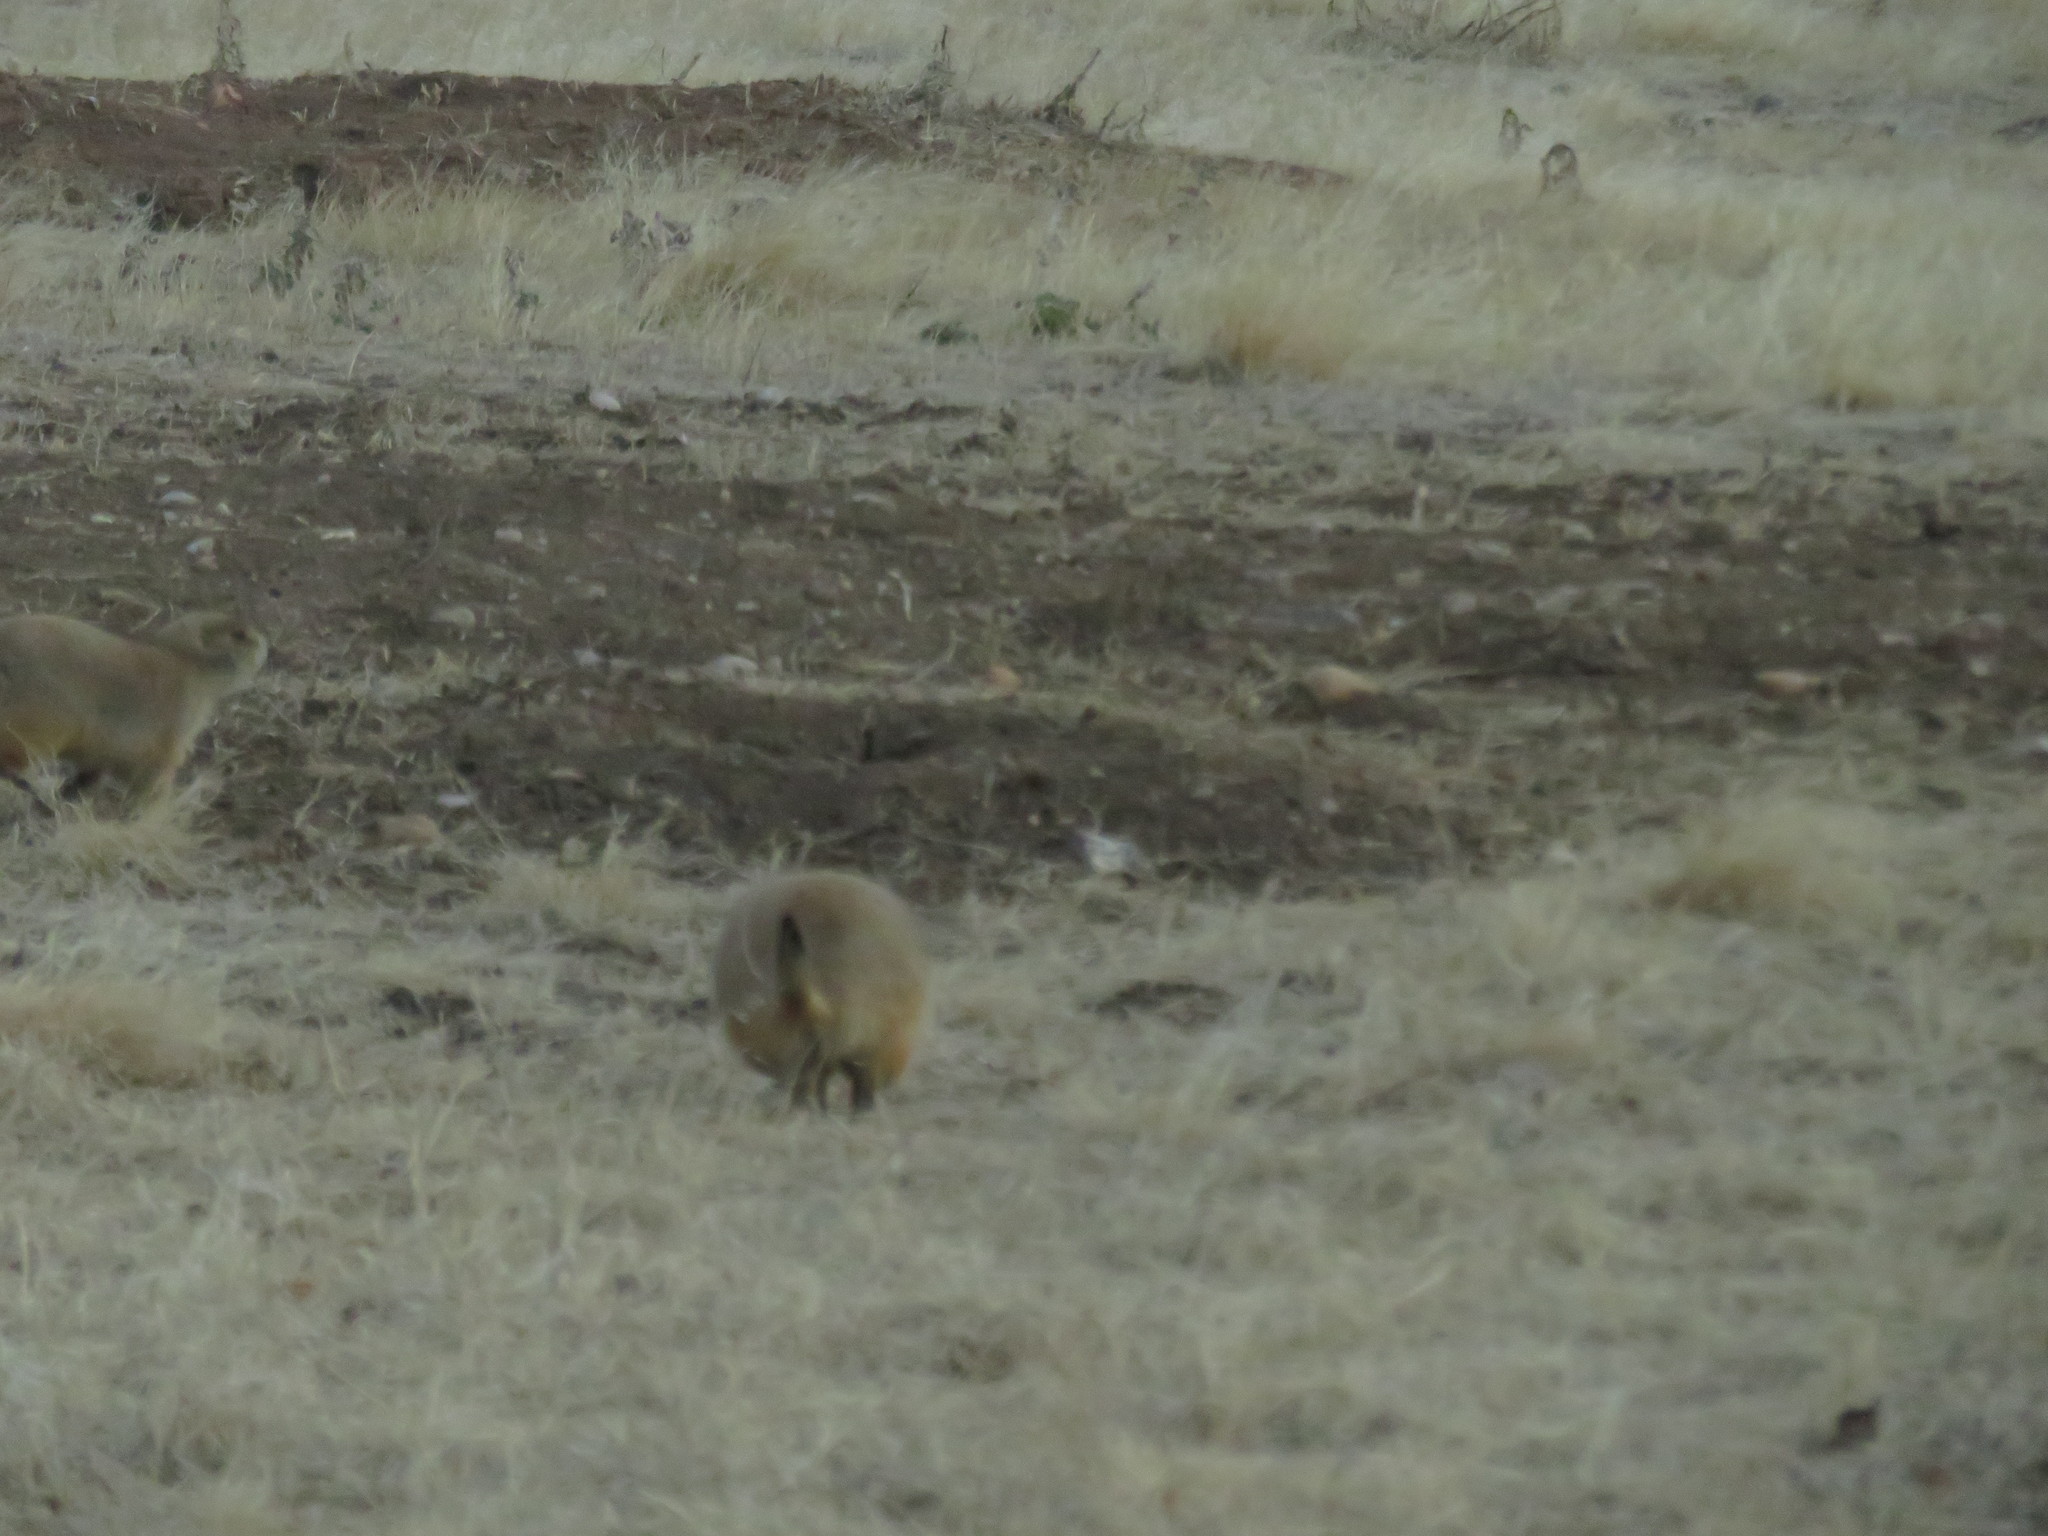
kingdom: Animalia
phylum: Chordata
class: Mammalia
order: Rodentia
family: Sciuridae
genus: Cynomys
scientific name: Cynomys ludovicianus
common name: Black-tailed prairie dog
